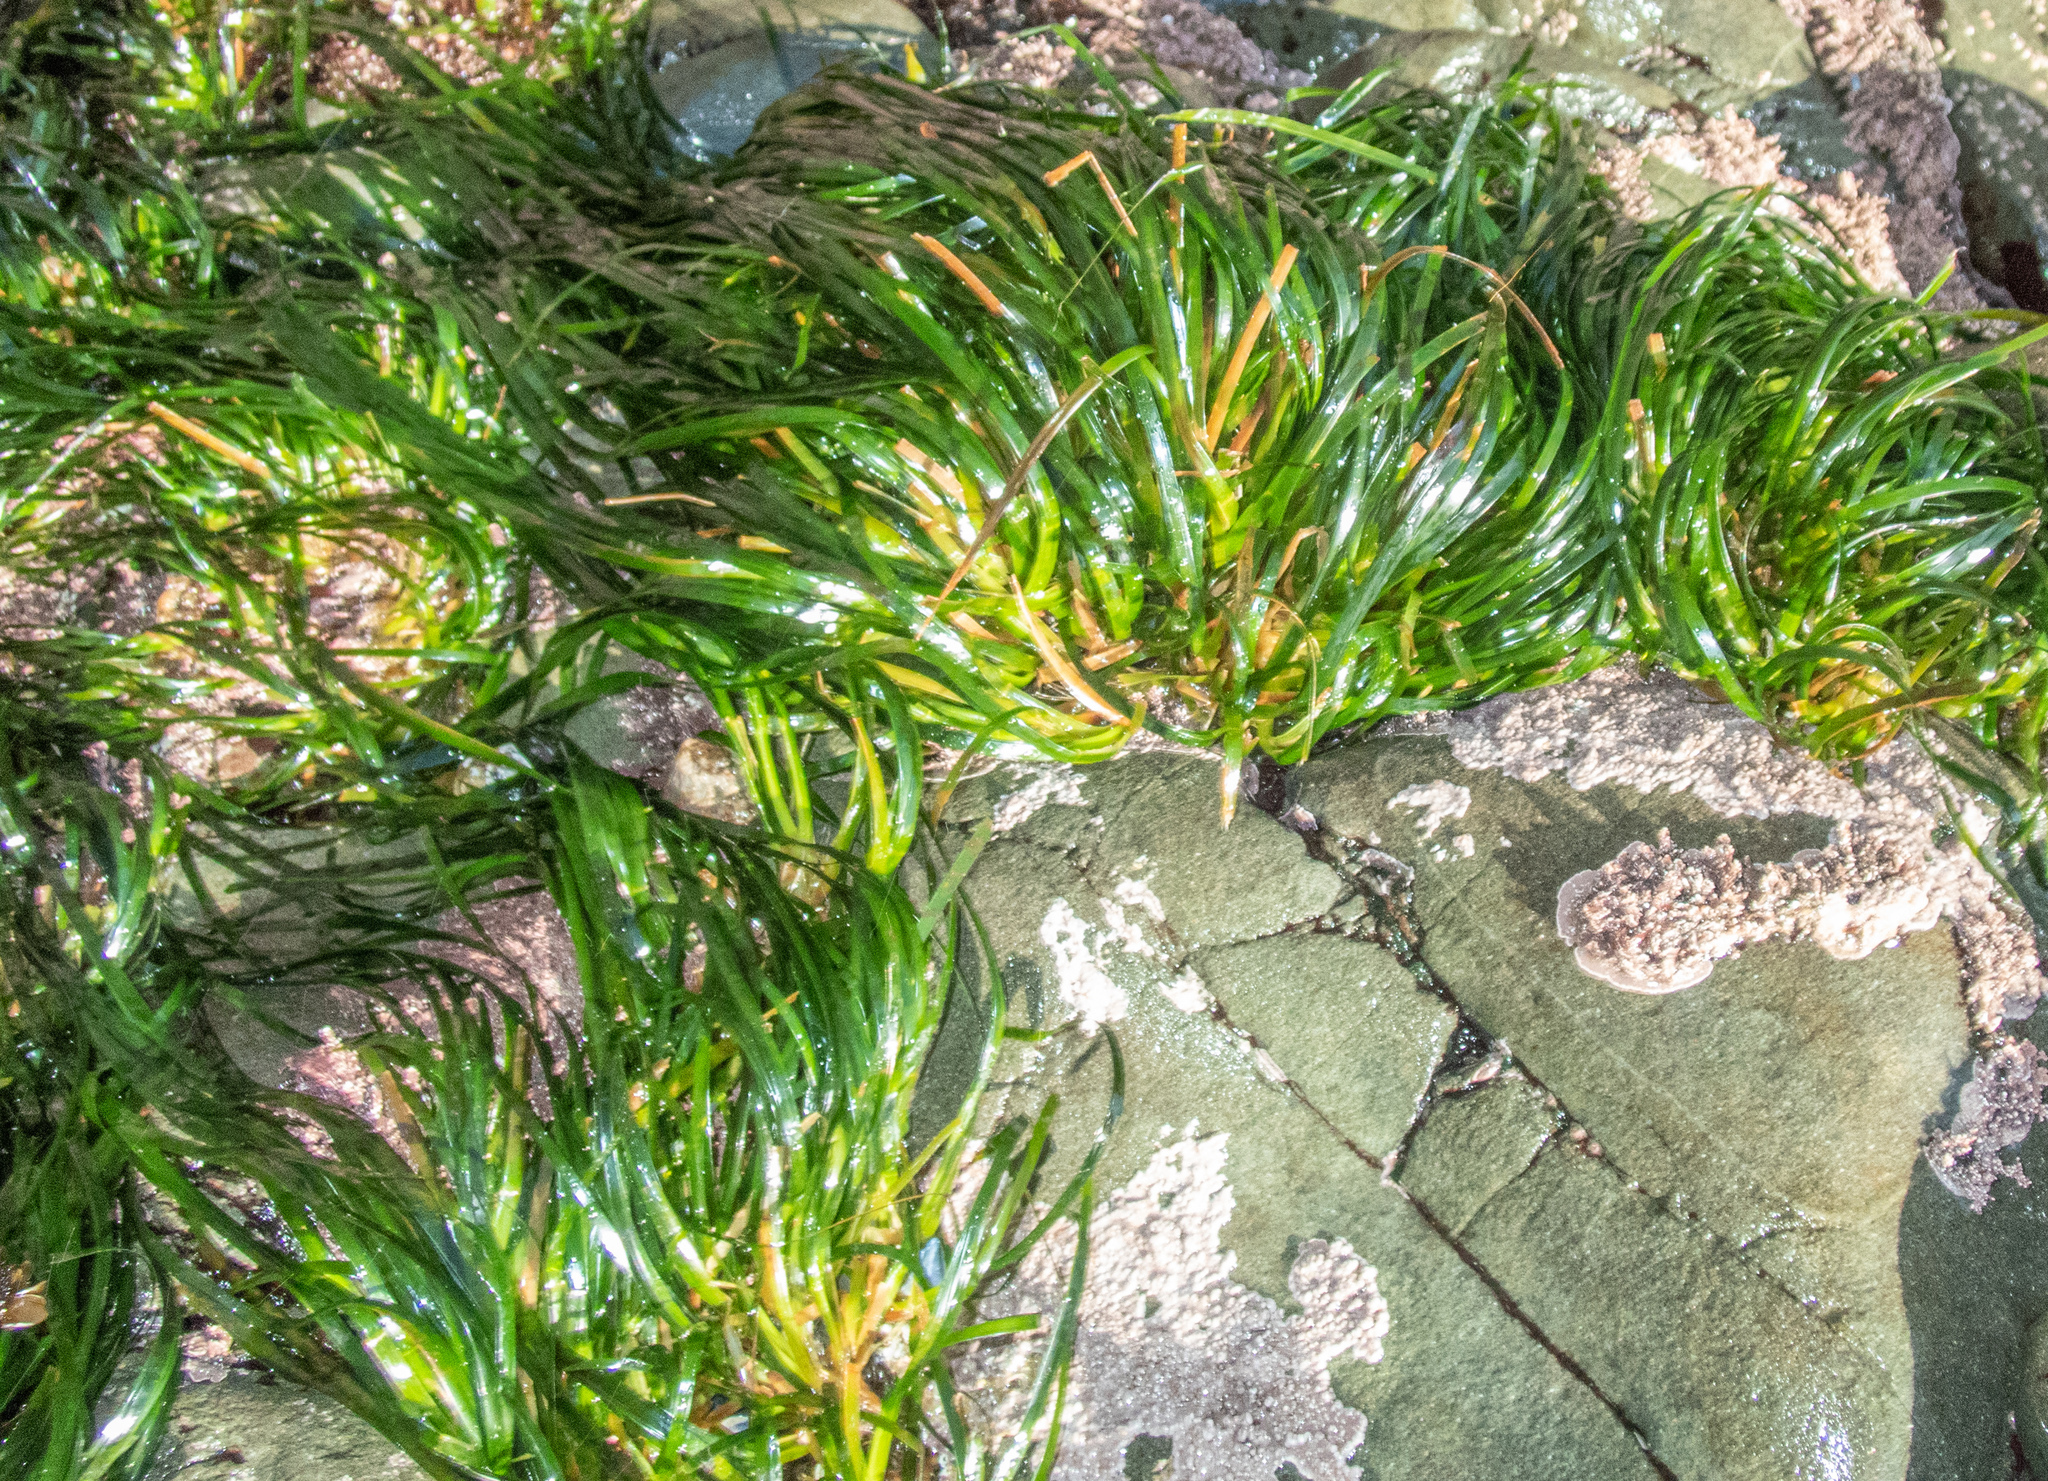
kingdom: Plantae
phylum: Tracheophyta
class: Liliopsida
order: Alismatales
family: Zosteraceae
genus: Phyllospadix
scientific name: Phyllospadix scouleri
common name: Species code: ps
